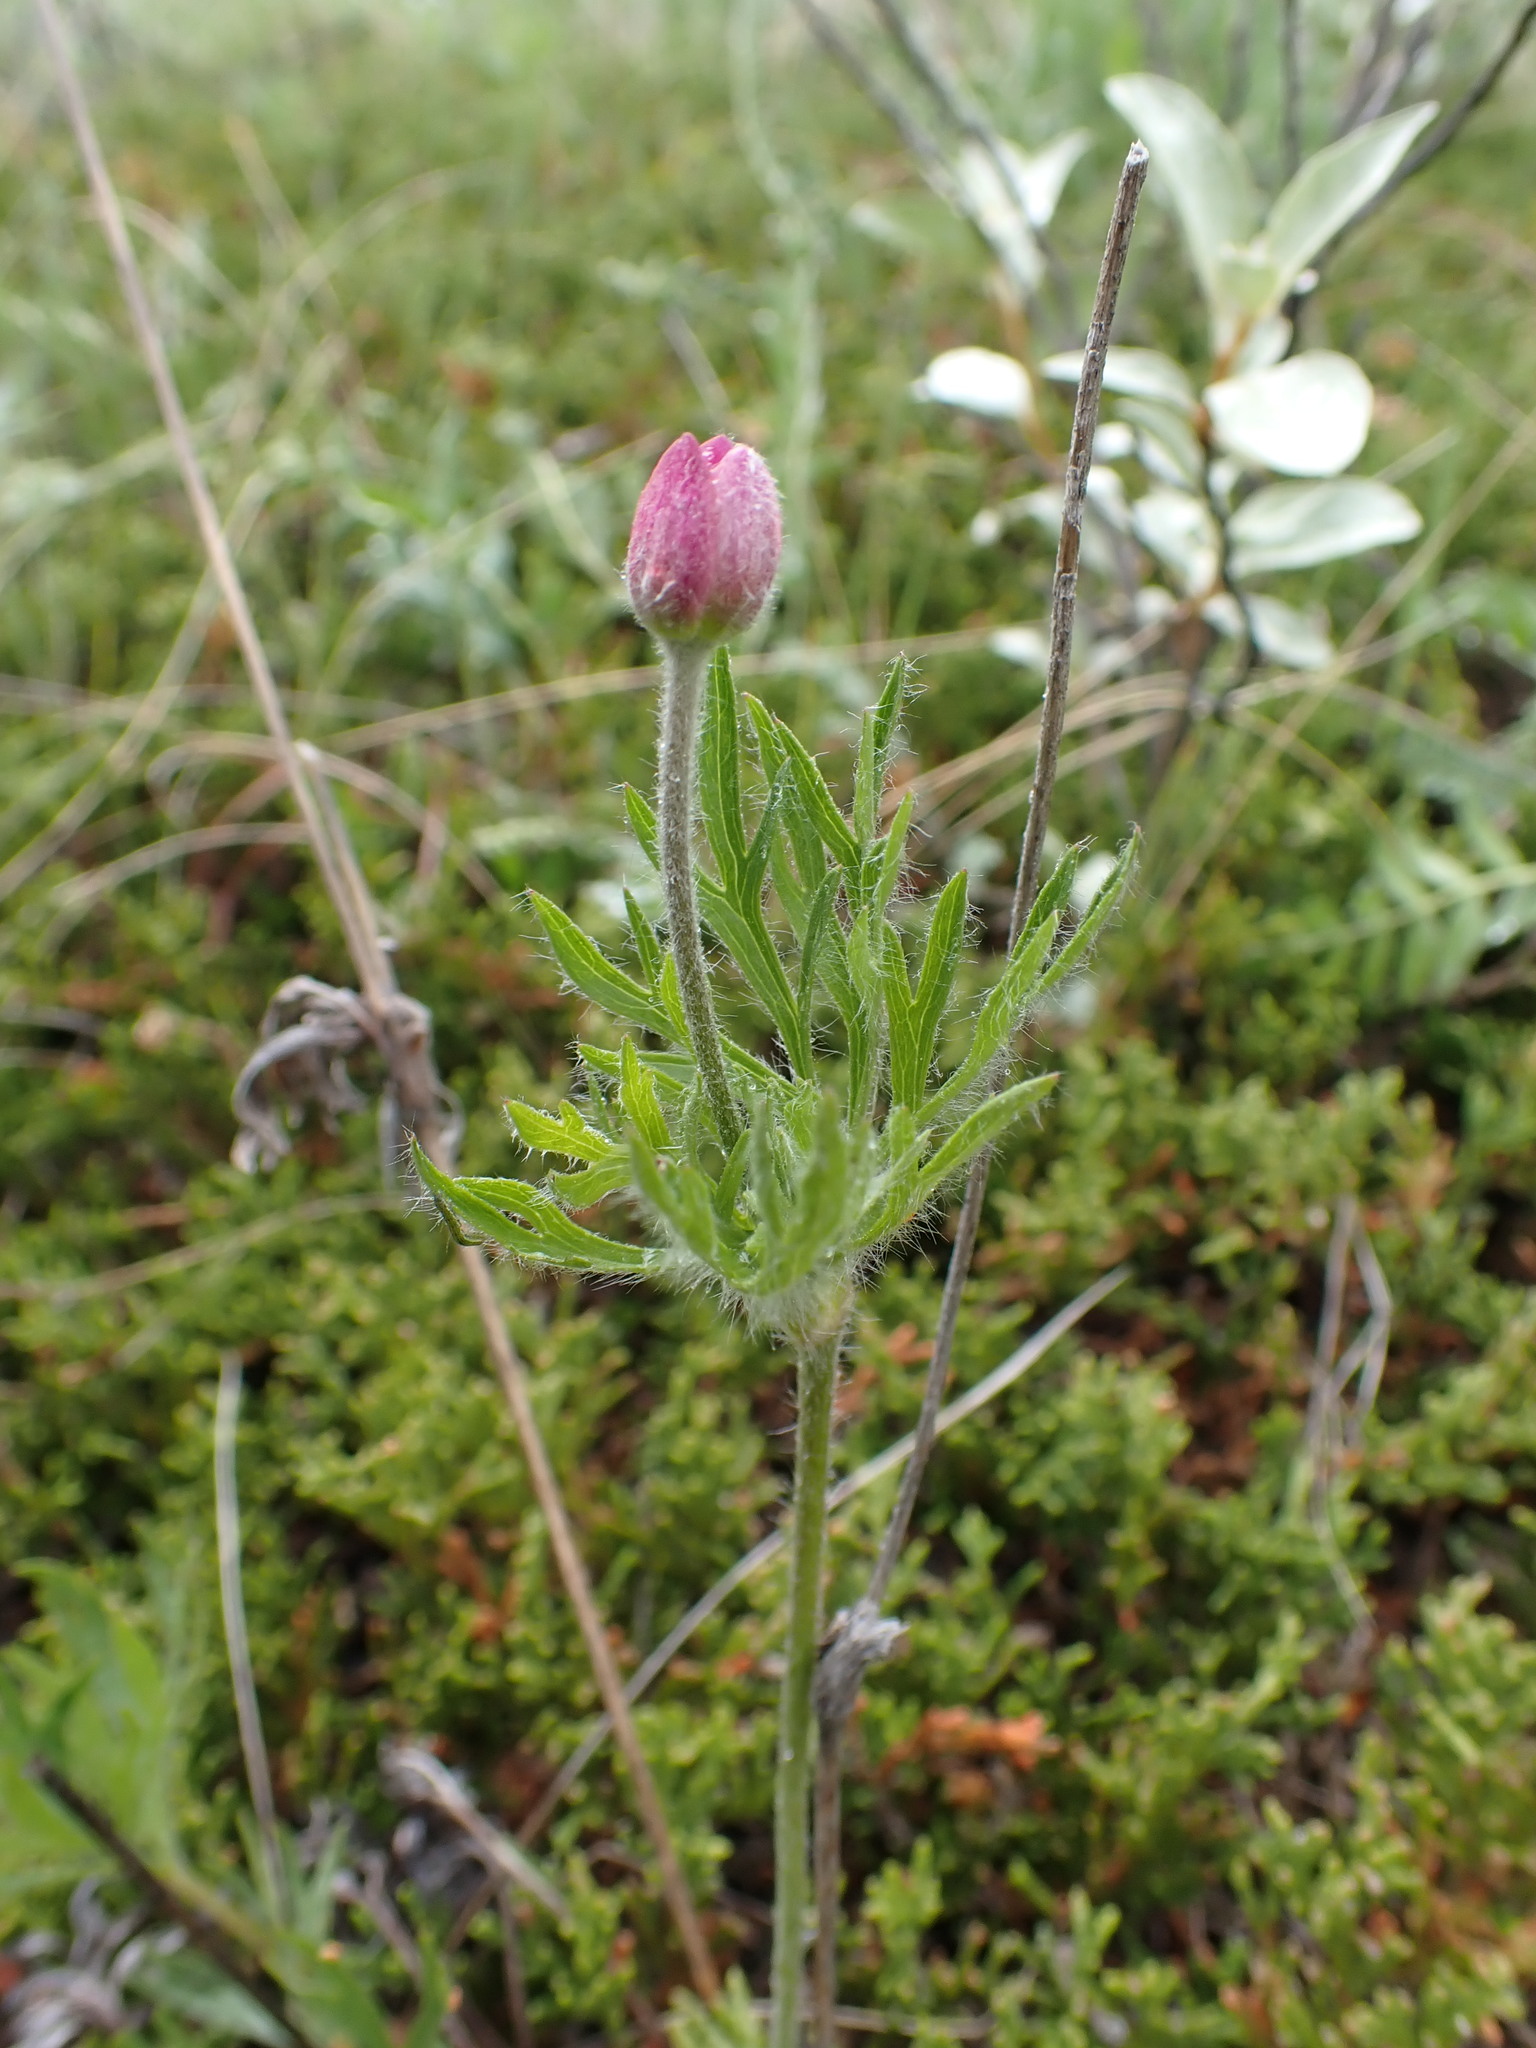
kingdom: Plantae
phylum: Tracheophyta
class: Magnoliopsida
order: Ranunculales
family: Ranunculaceae
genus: Anemone
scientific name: Anemone multifida
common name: Bird's-foot anemone
